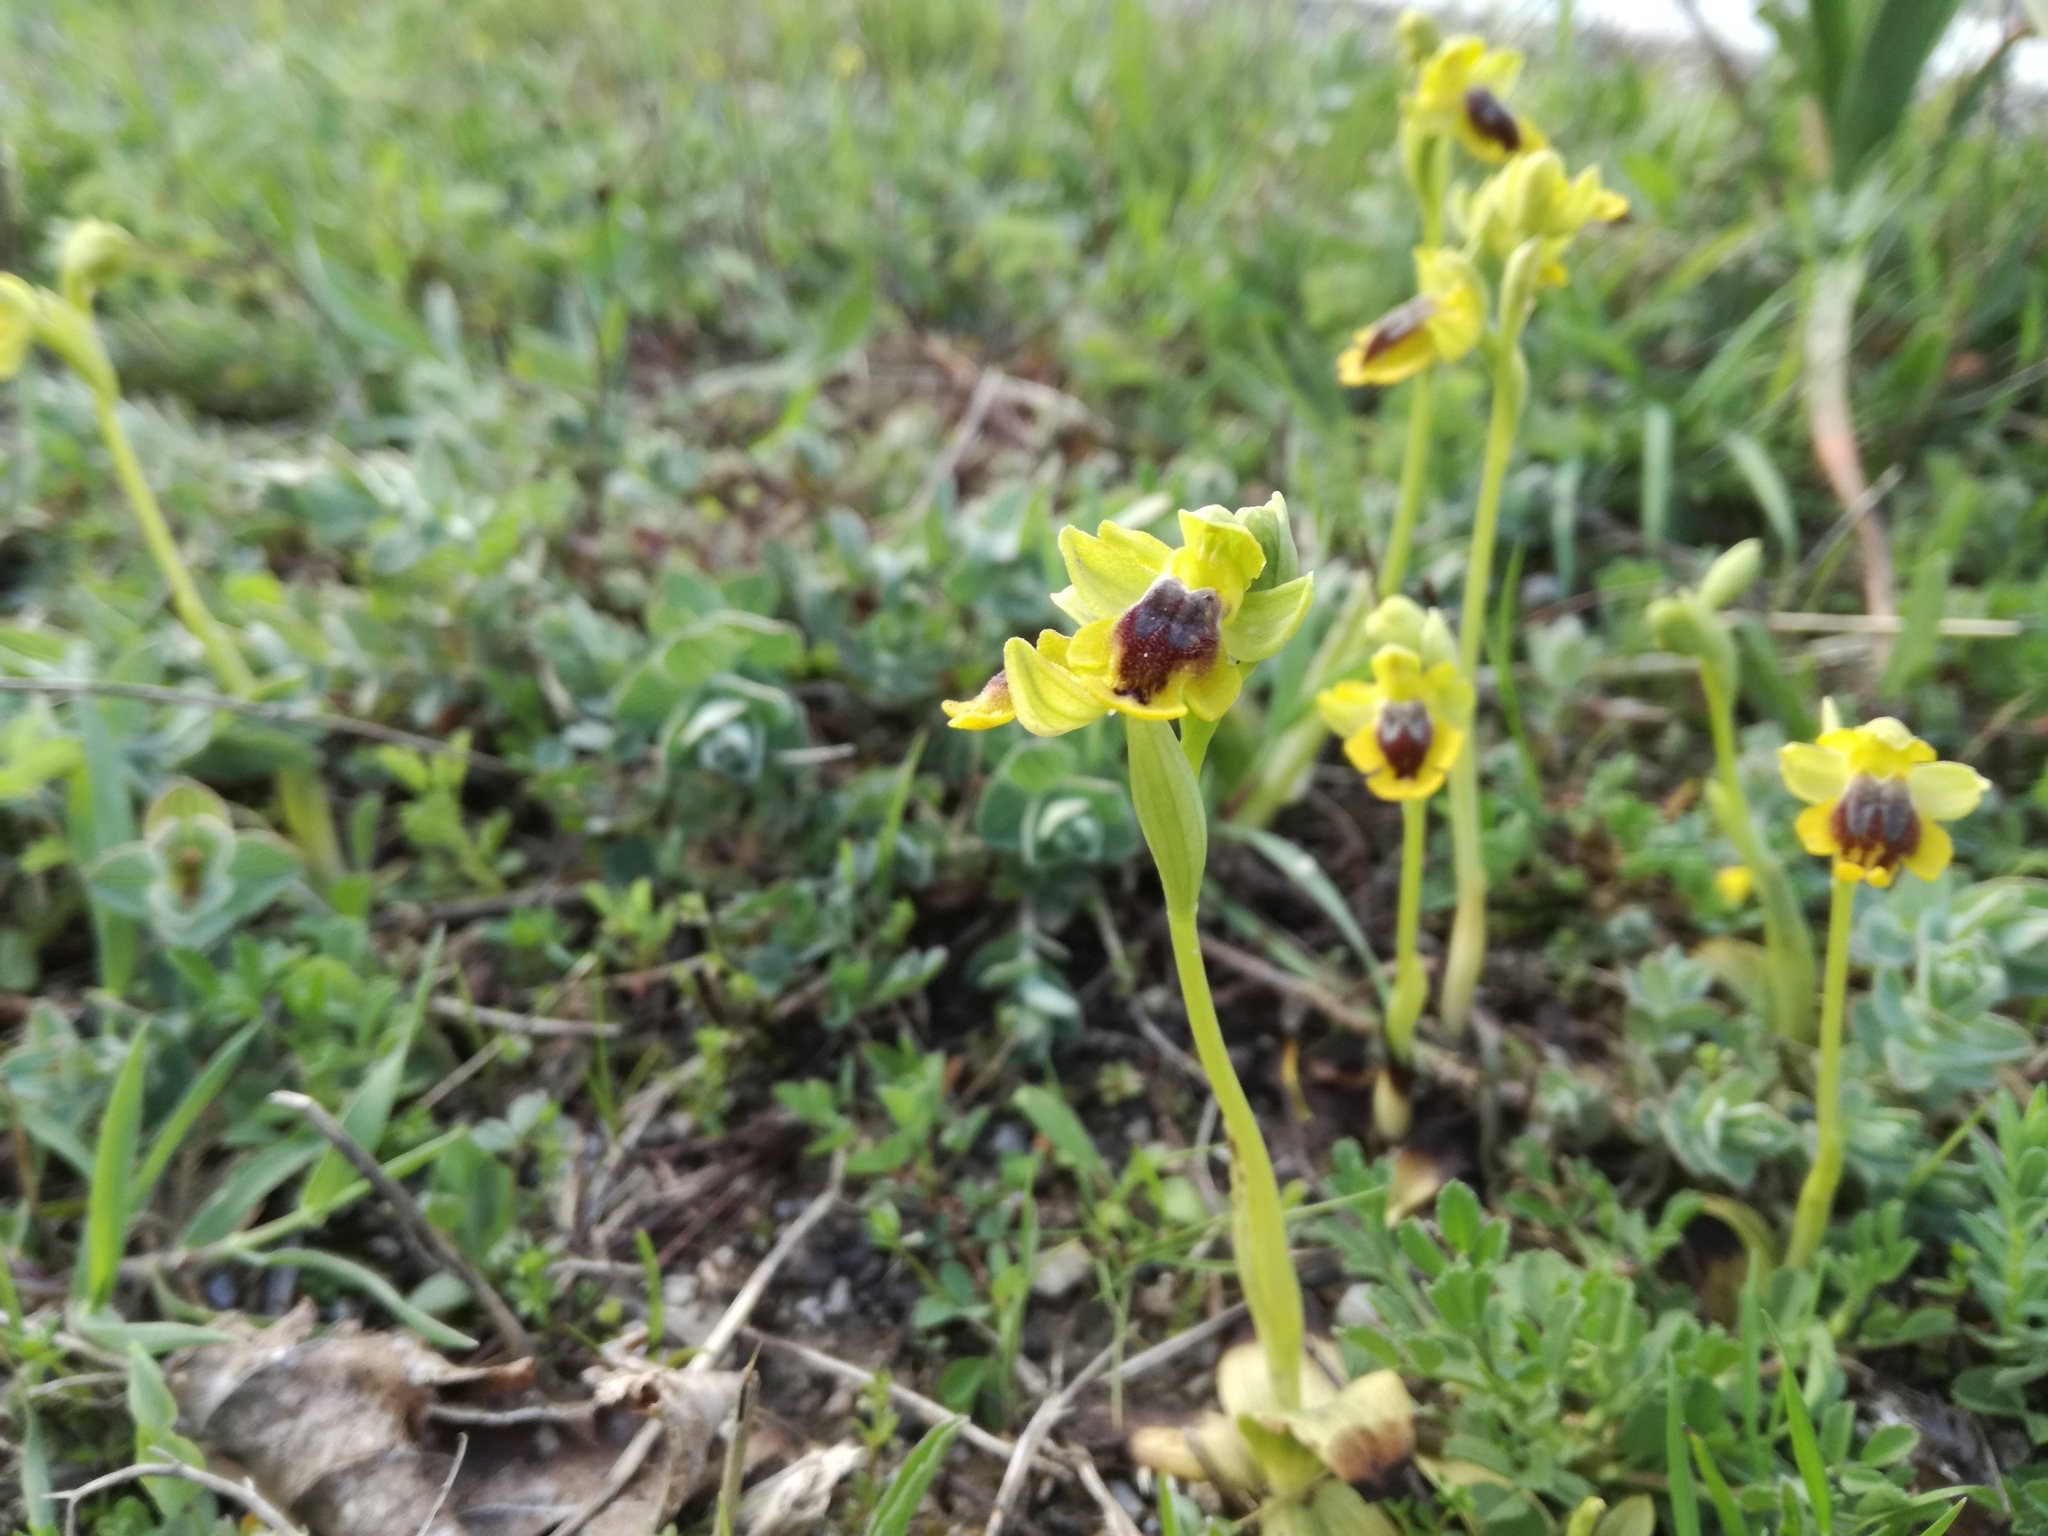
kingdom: Plantae
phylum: Tracheophyta
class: Liliopsida
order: Asparagales
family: Orchidaceae
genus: Ophrys
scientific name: Ophrys lutea
